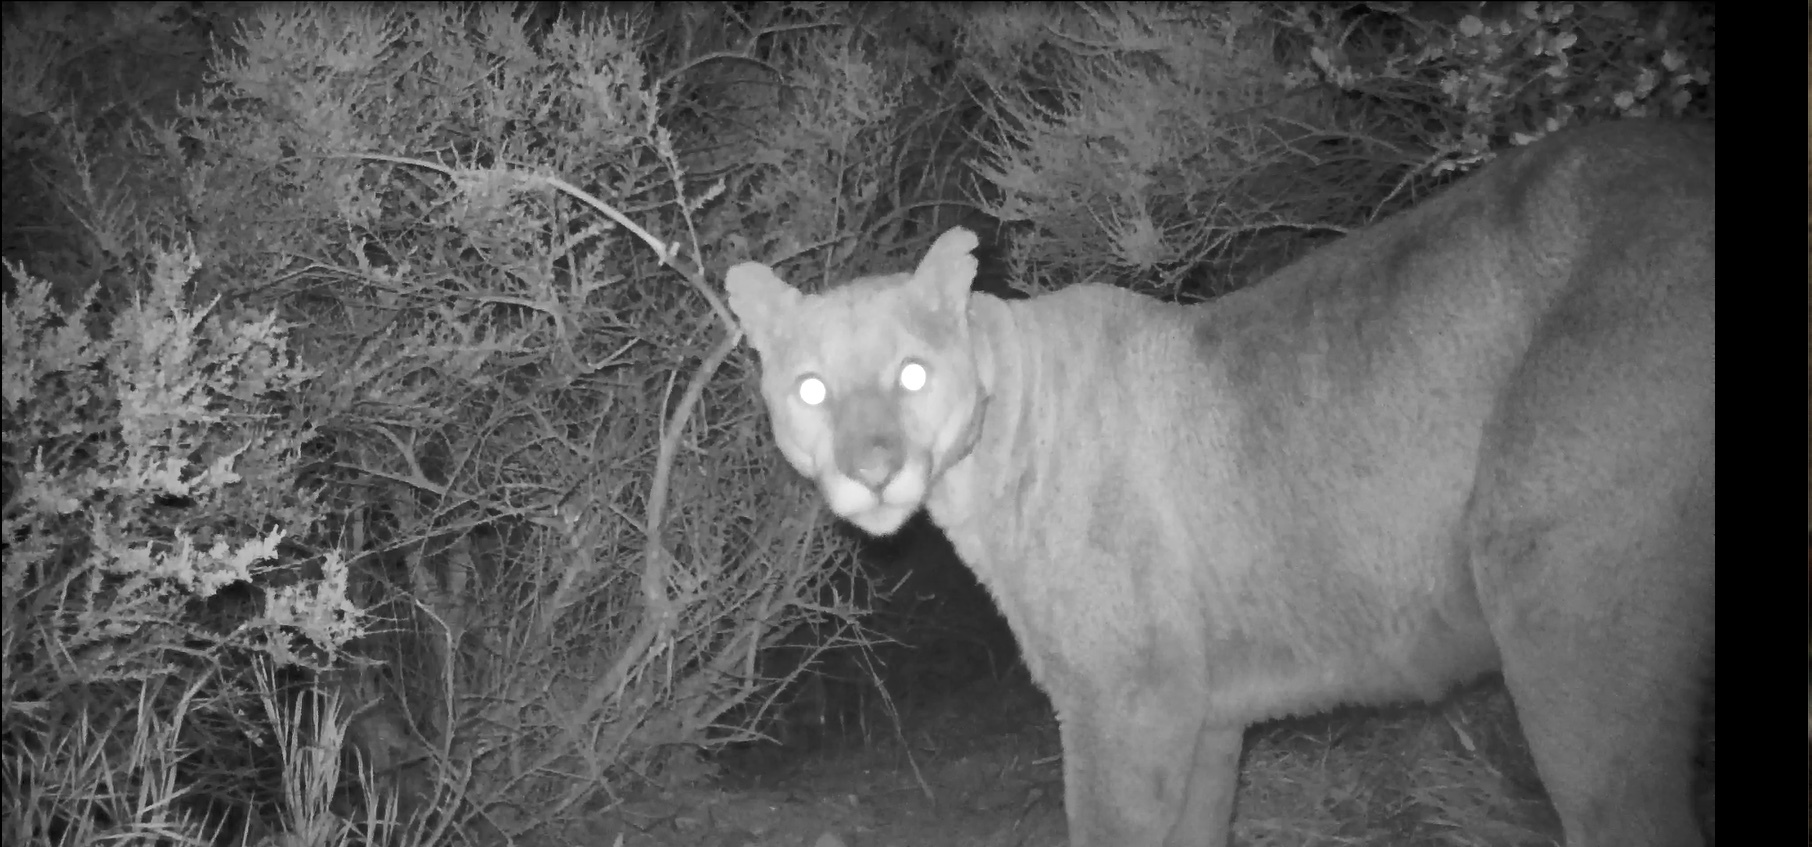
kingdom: Animalia
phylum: Chordata
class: Mammalia
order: Carnivora
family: Felidae
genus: Puma
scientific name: Puma concolor
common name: Puma
